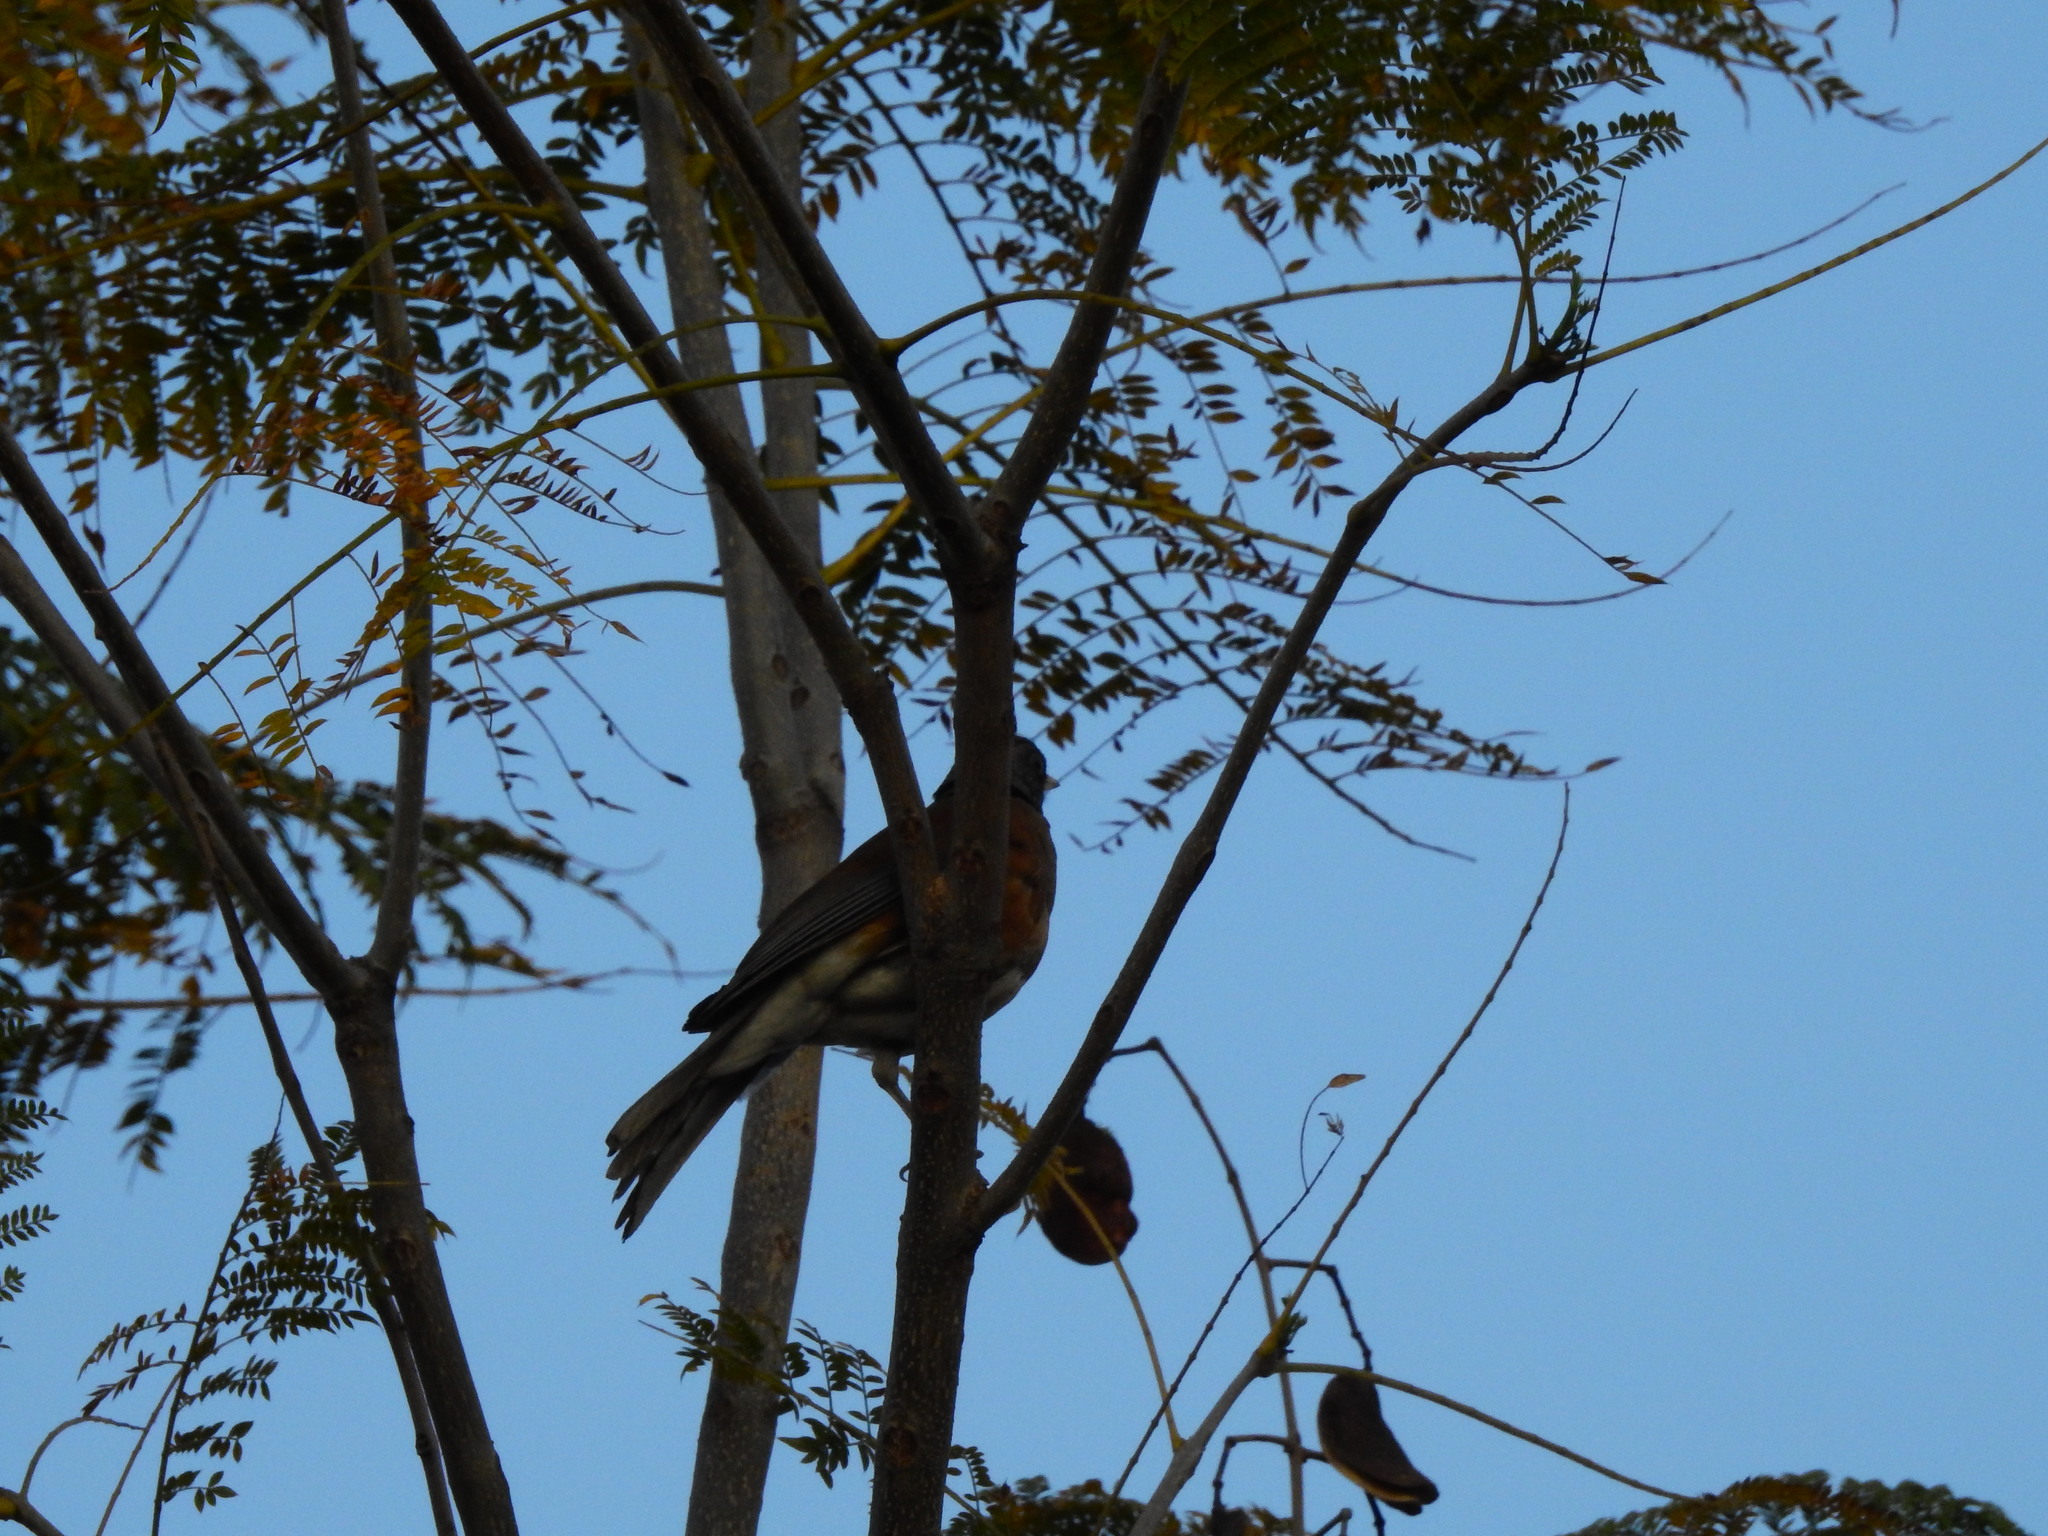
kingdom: Animalia
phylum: Chordata
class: Aves
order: Passeriformes
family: Turdidae
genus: Turdus
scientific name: Turdus rufopalliatus
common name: Rufous-backed robin
